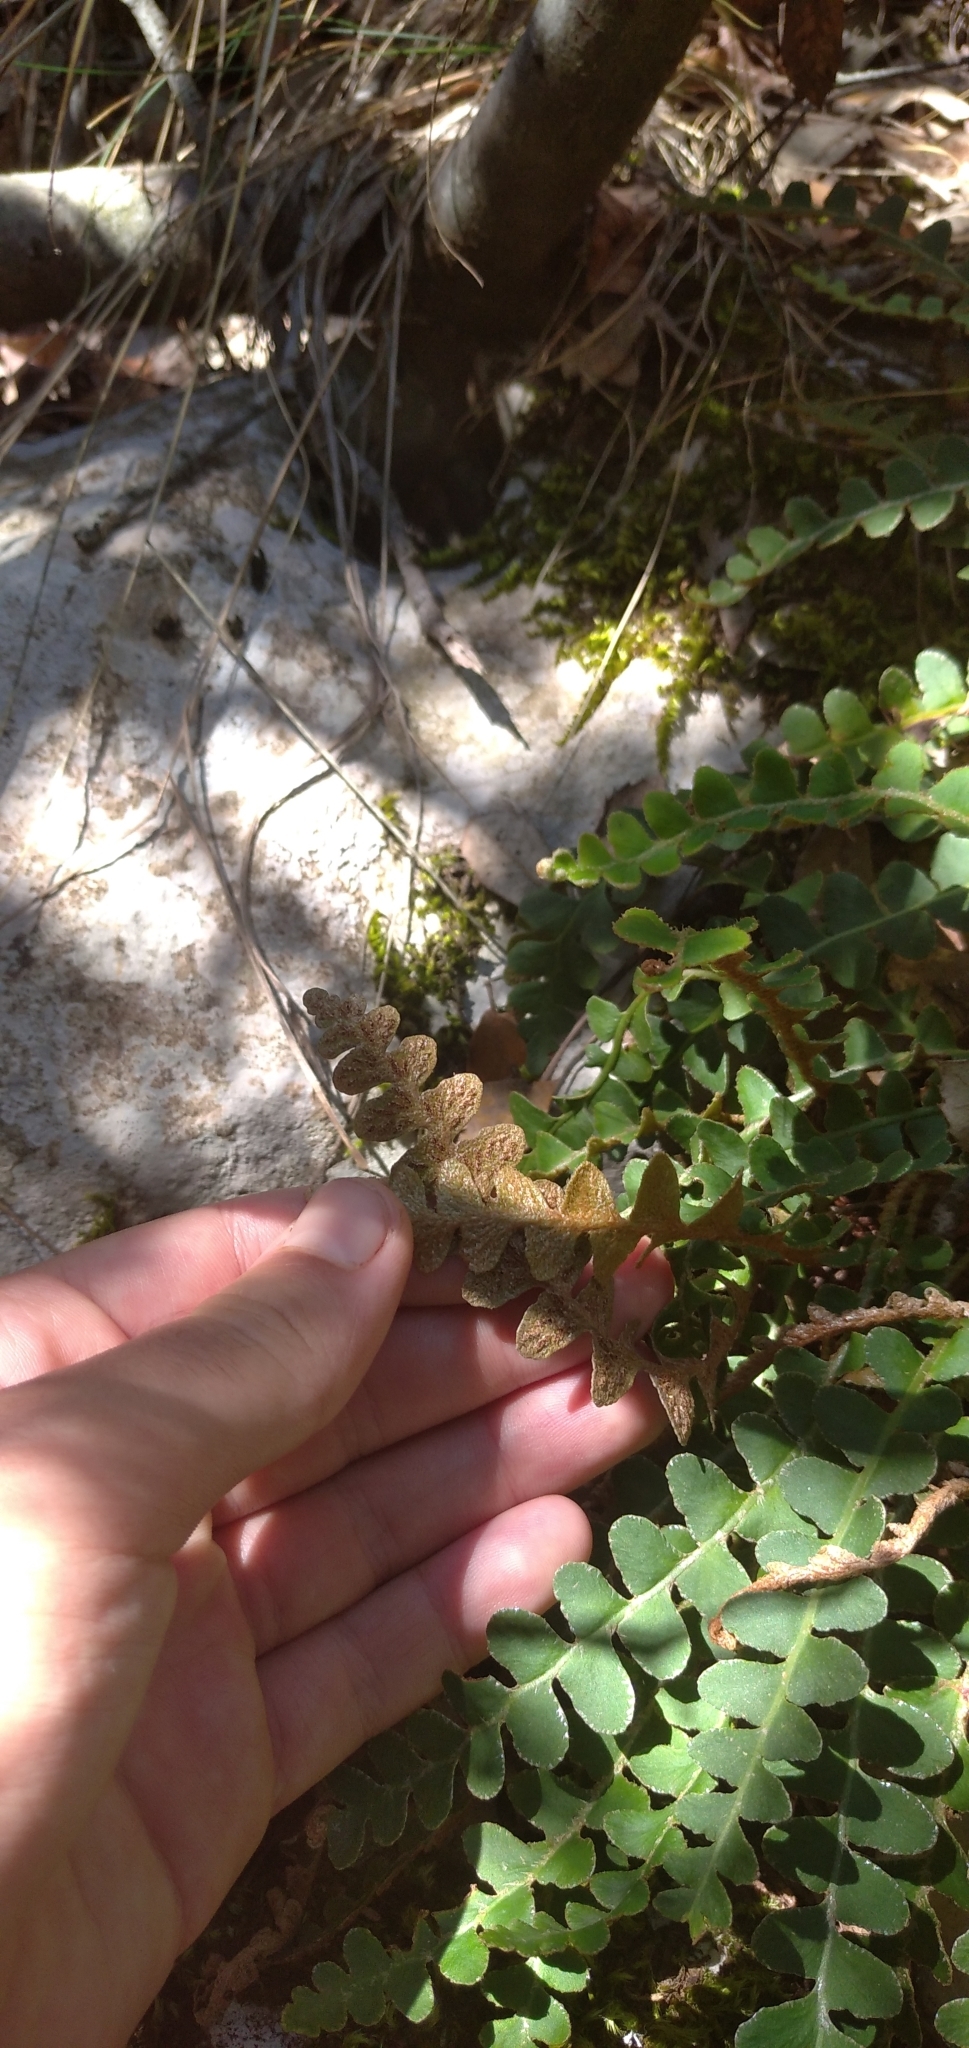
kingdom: Plantae
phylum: Tracheophyta
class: Polypodiopsida
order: Polypodiales
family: Aspleniaceae
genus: Asplenium
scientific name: Asplenium ceterach
